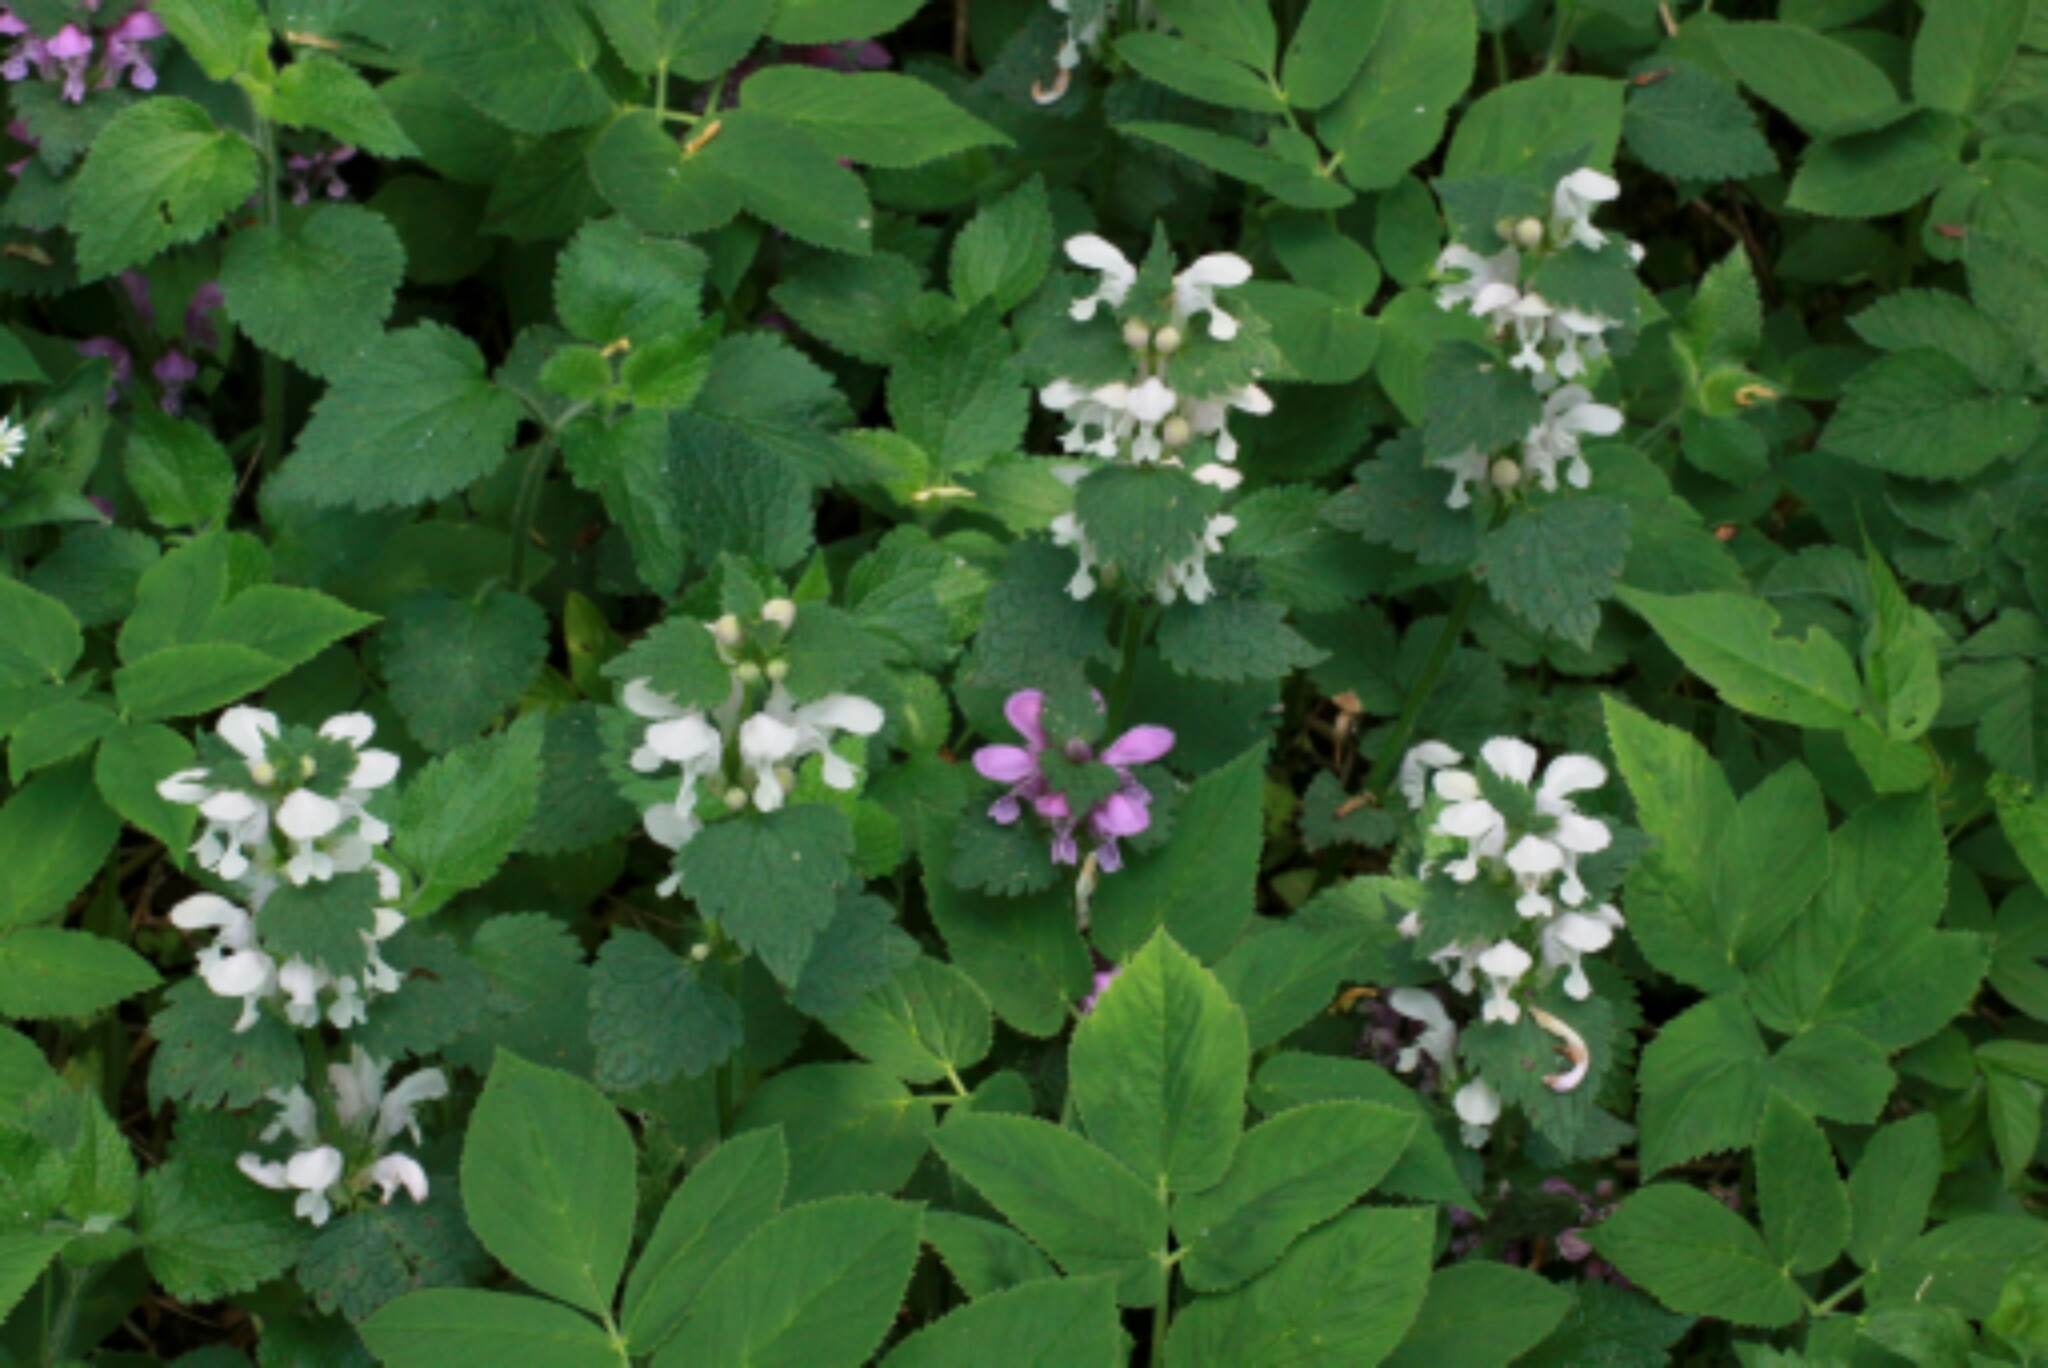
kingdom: Plantae
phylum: Tracheophyta
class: Magnoliopsida
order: Lamiales
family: Lamiaceae
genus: Lamium
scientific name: Lamium maculatum
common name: Spotted dead-nettle
